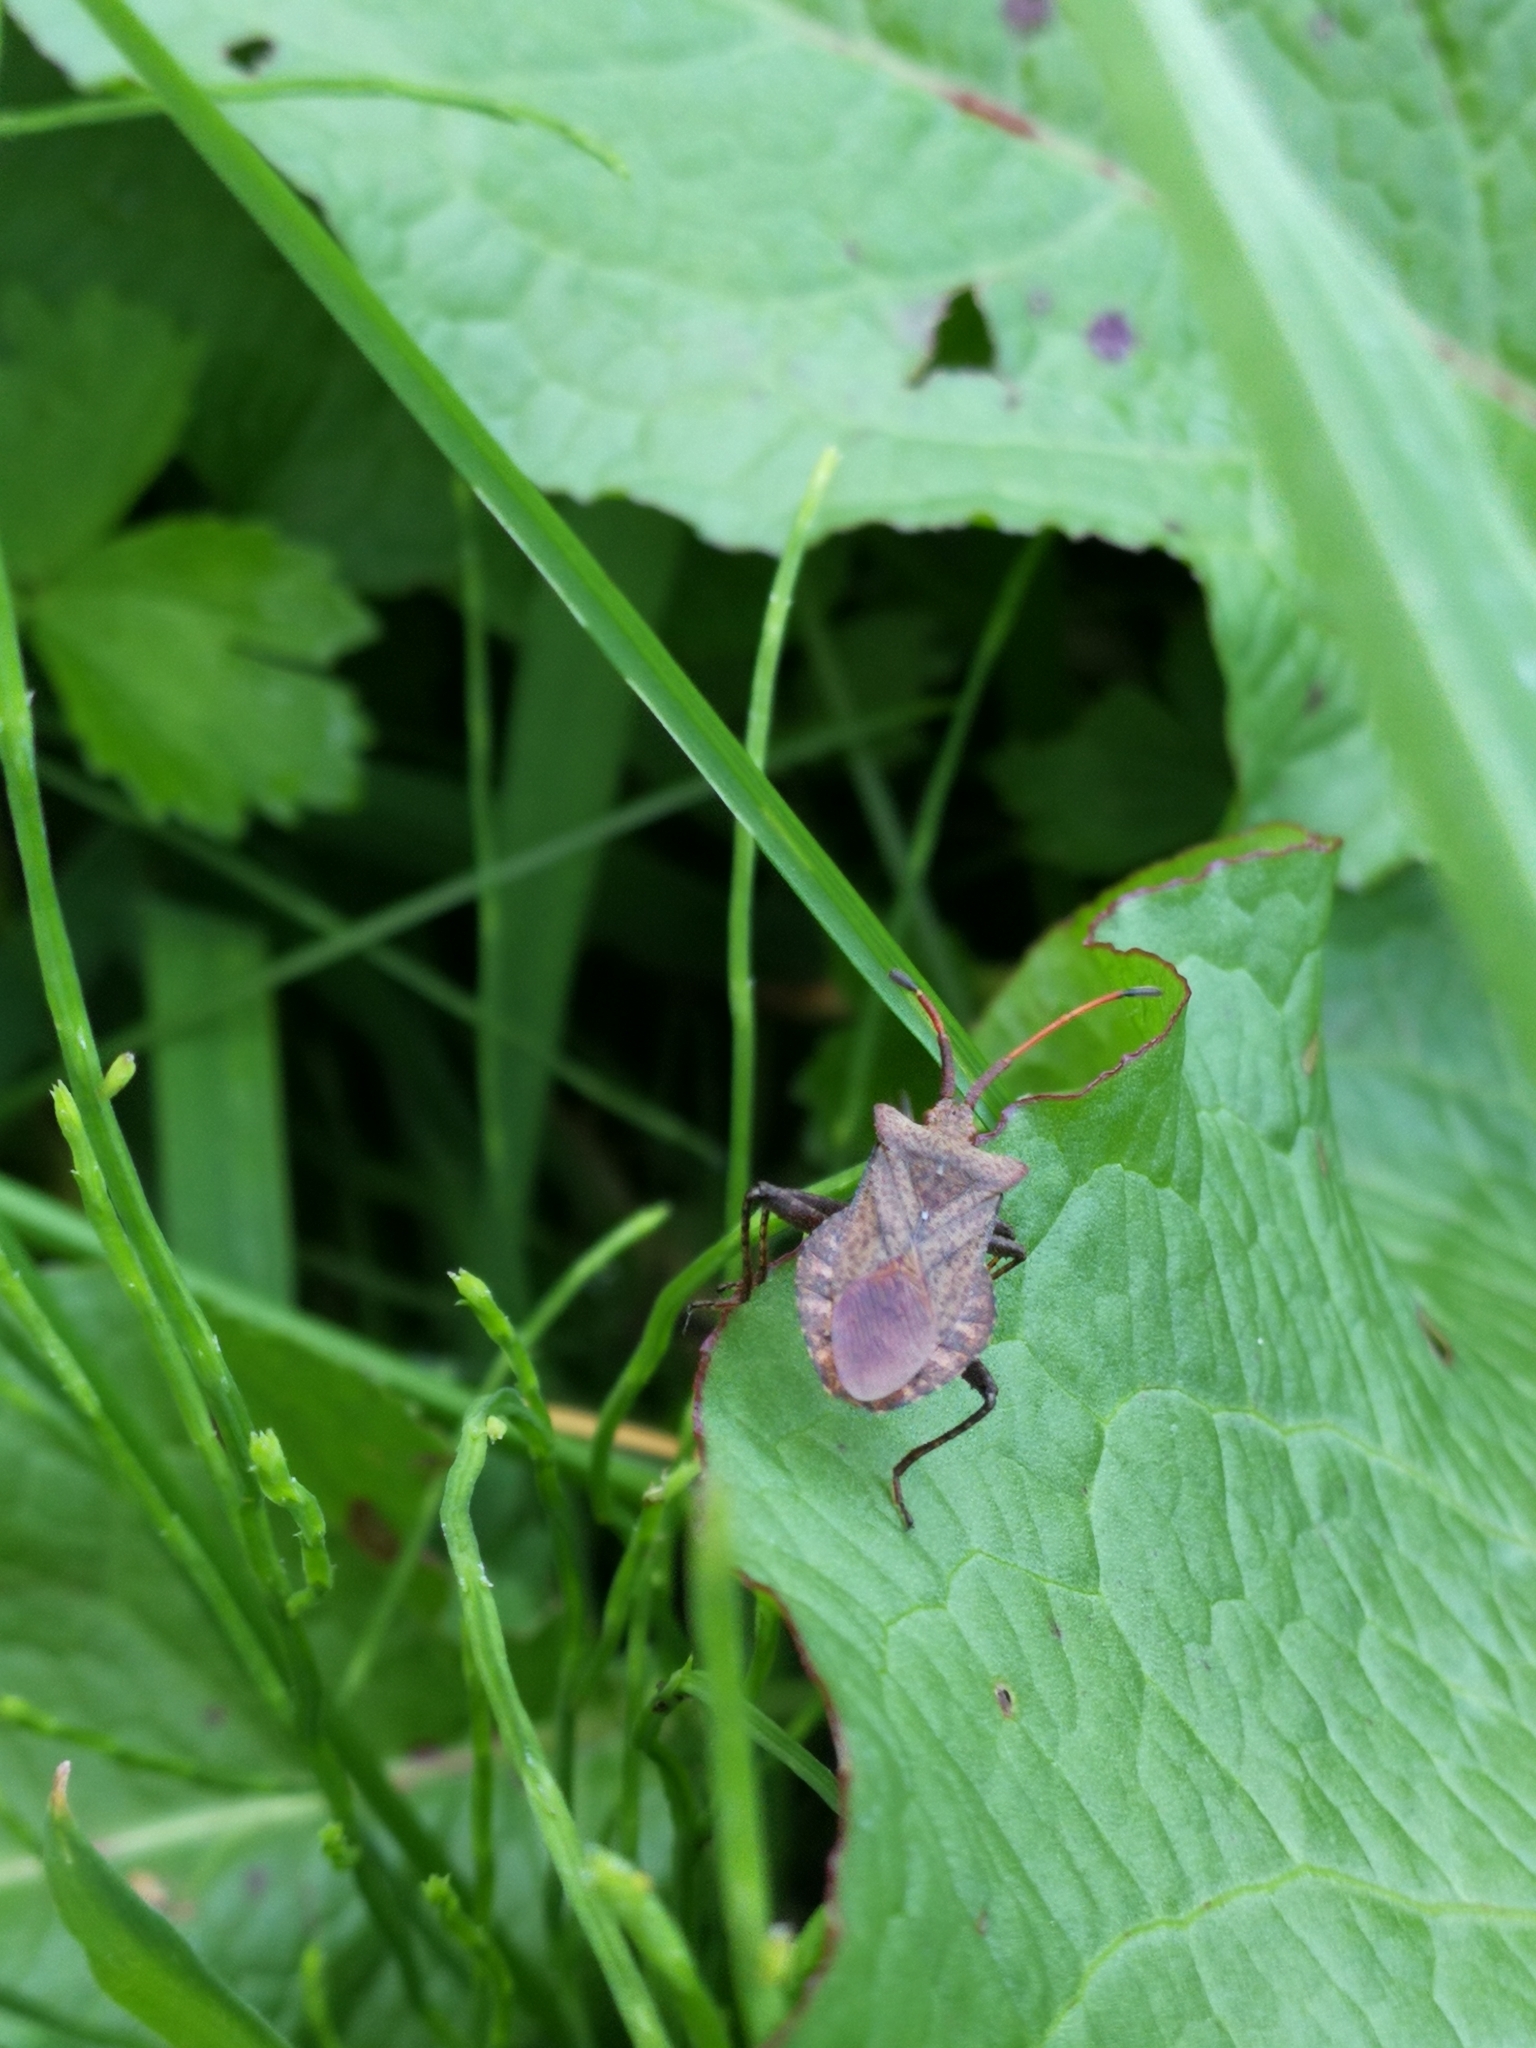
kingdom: Animalia
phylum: Arthropoda
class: Insecta
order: Hemiptera
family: Coreidae
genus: Coreus
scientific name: Coreus marginatus
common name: Dock bug
